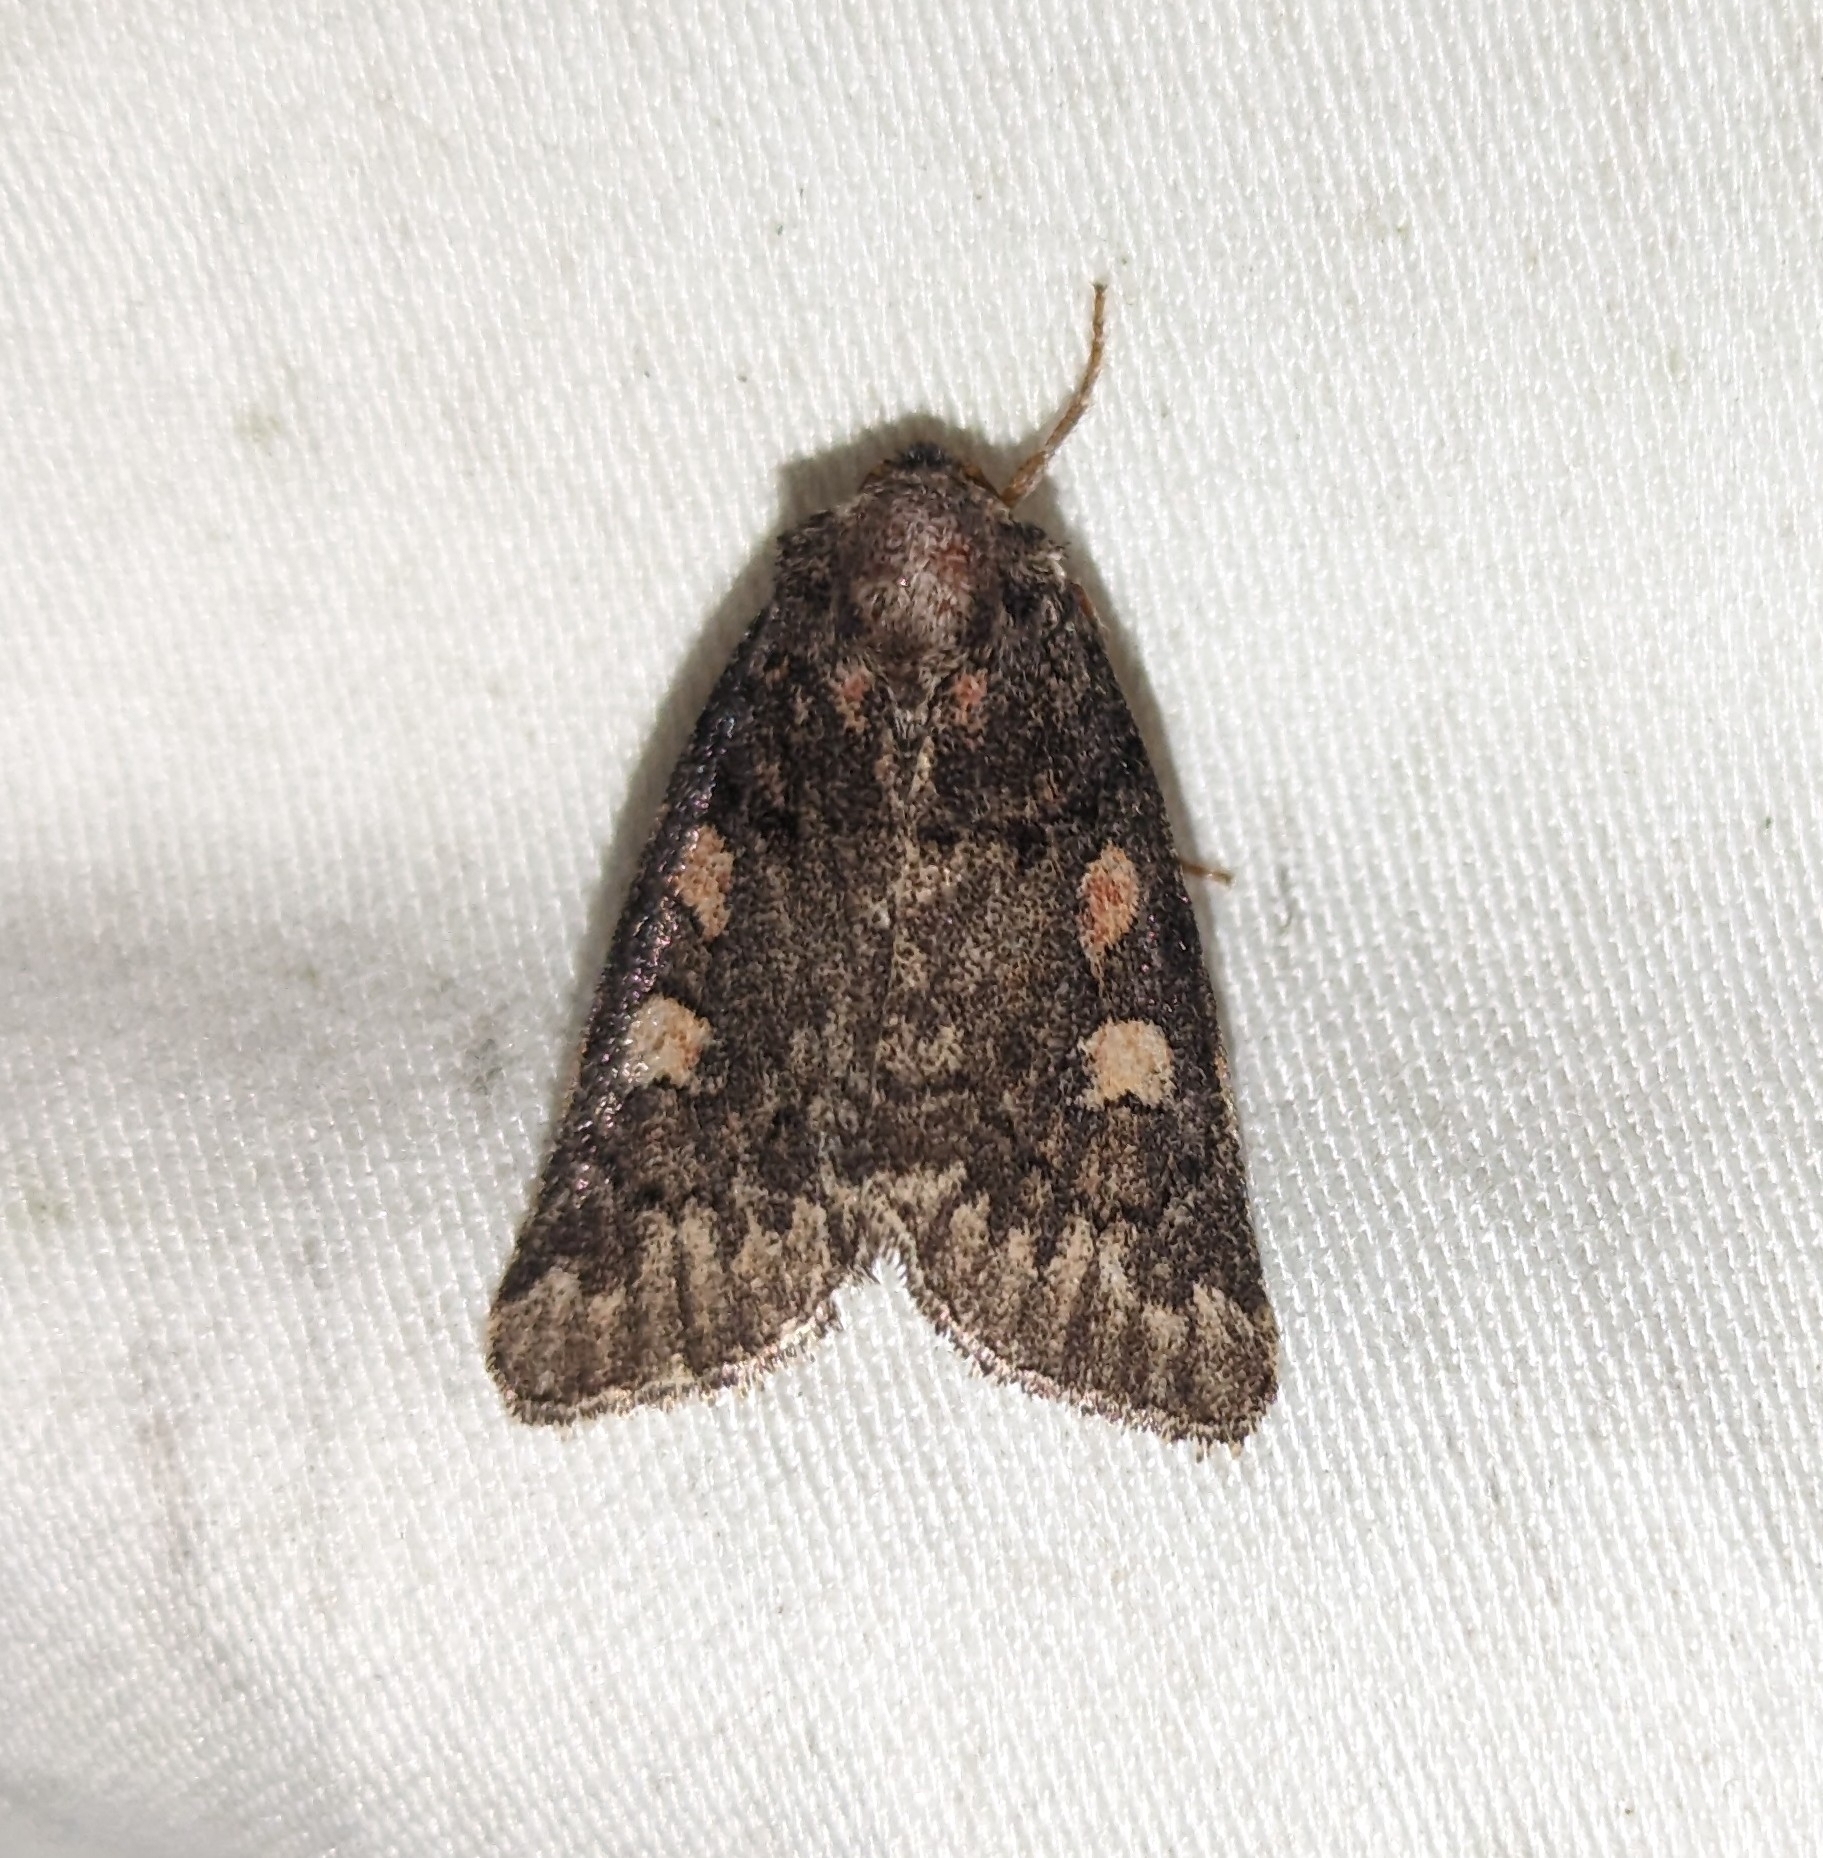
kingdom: Animalia
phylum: Arthropoda
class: Insecta
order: Lepidoptera
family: Noctuidae
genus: Cosmia
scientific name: Cosmia praeacuta
